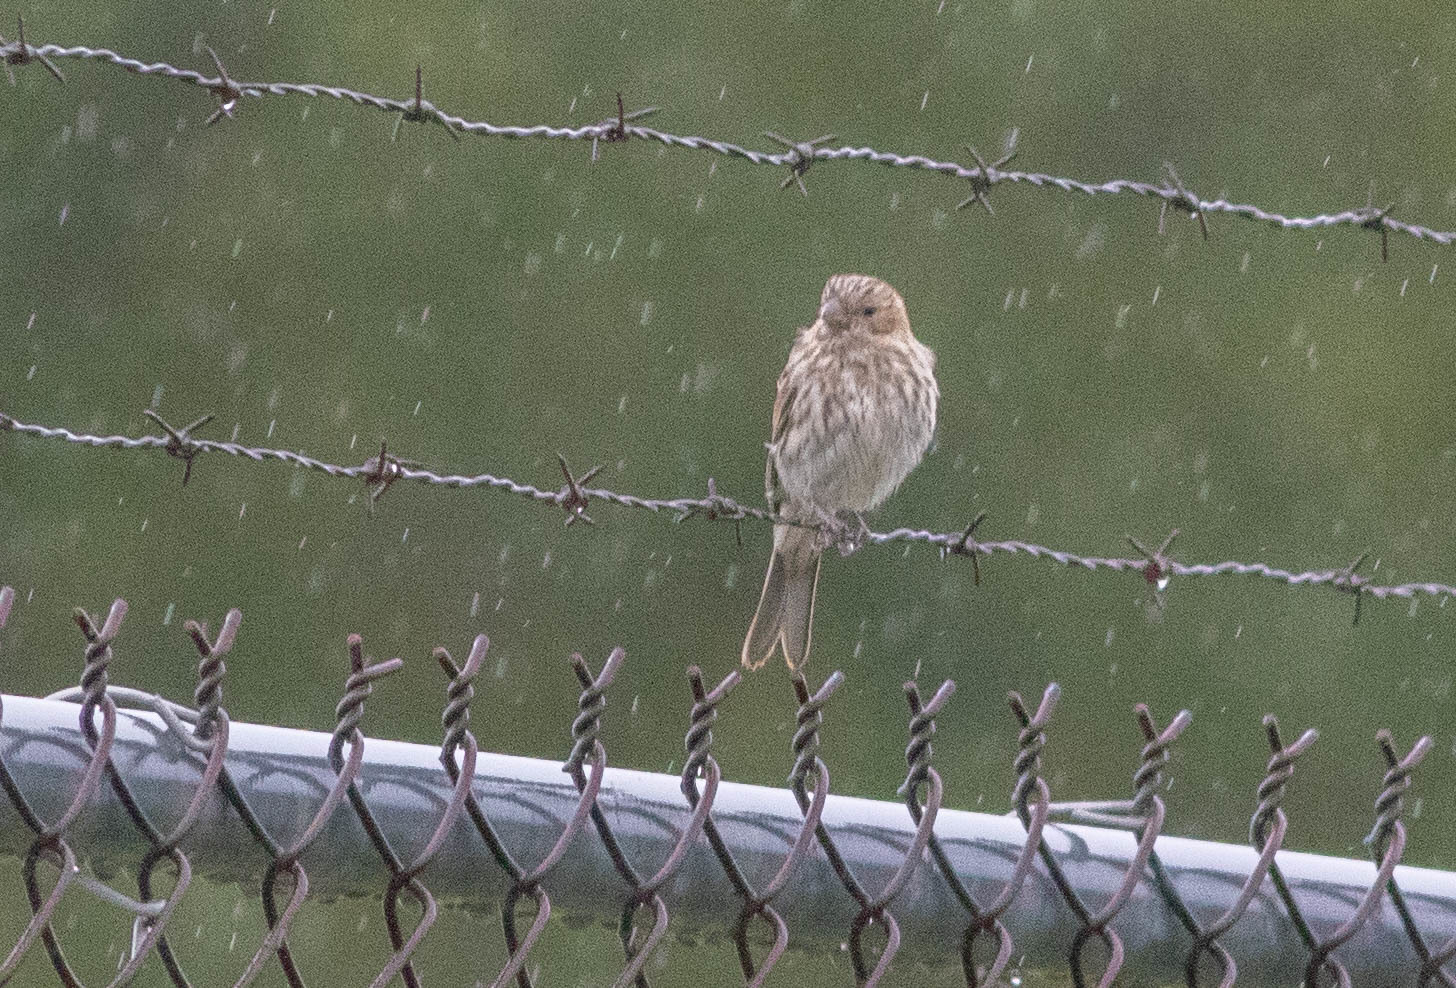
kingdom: Animalia
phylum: Chordata
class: Aves
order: Passeriformes
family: Fringillidae
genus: Haemorhous
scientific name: Haemorhous mexicanus
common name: House finch
